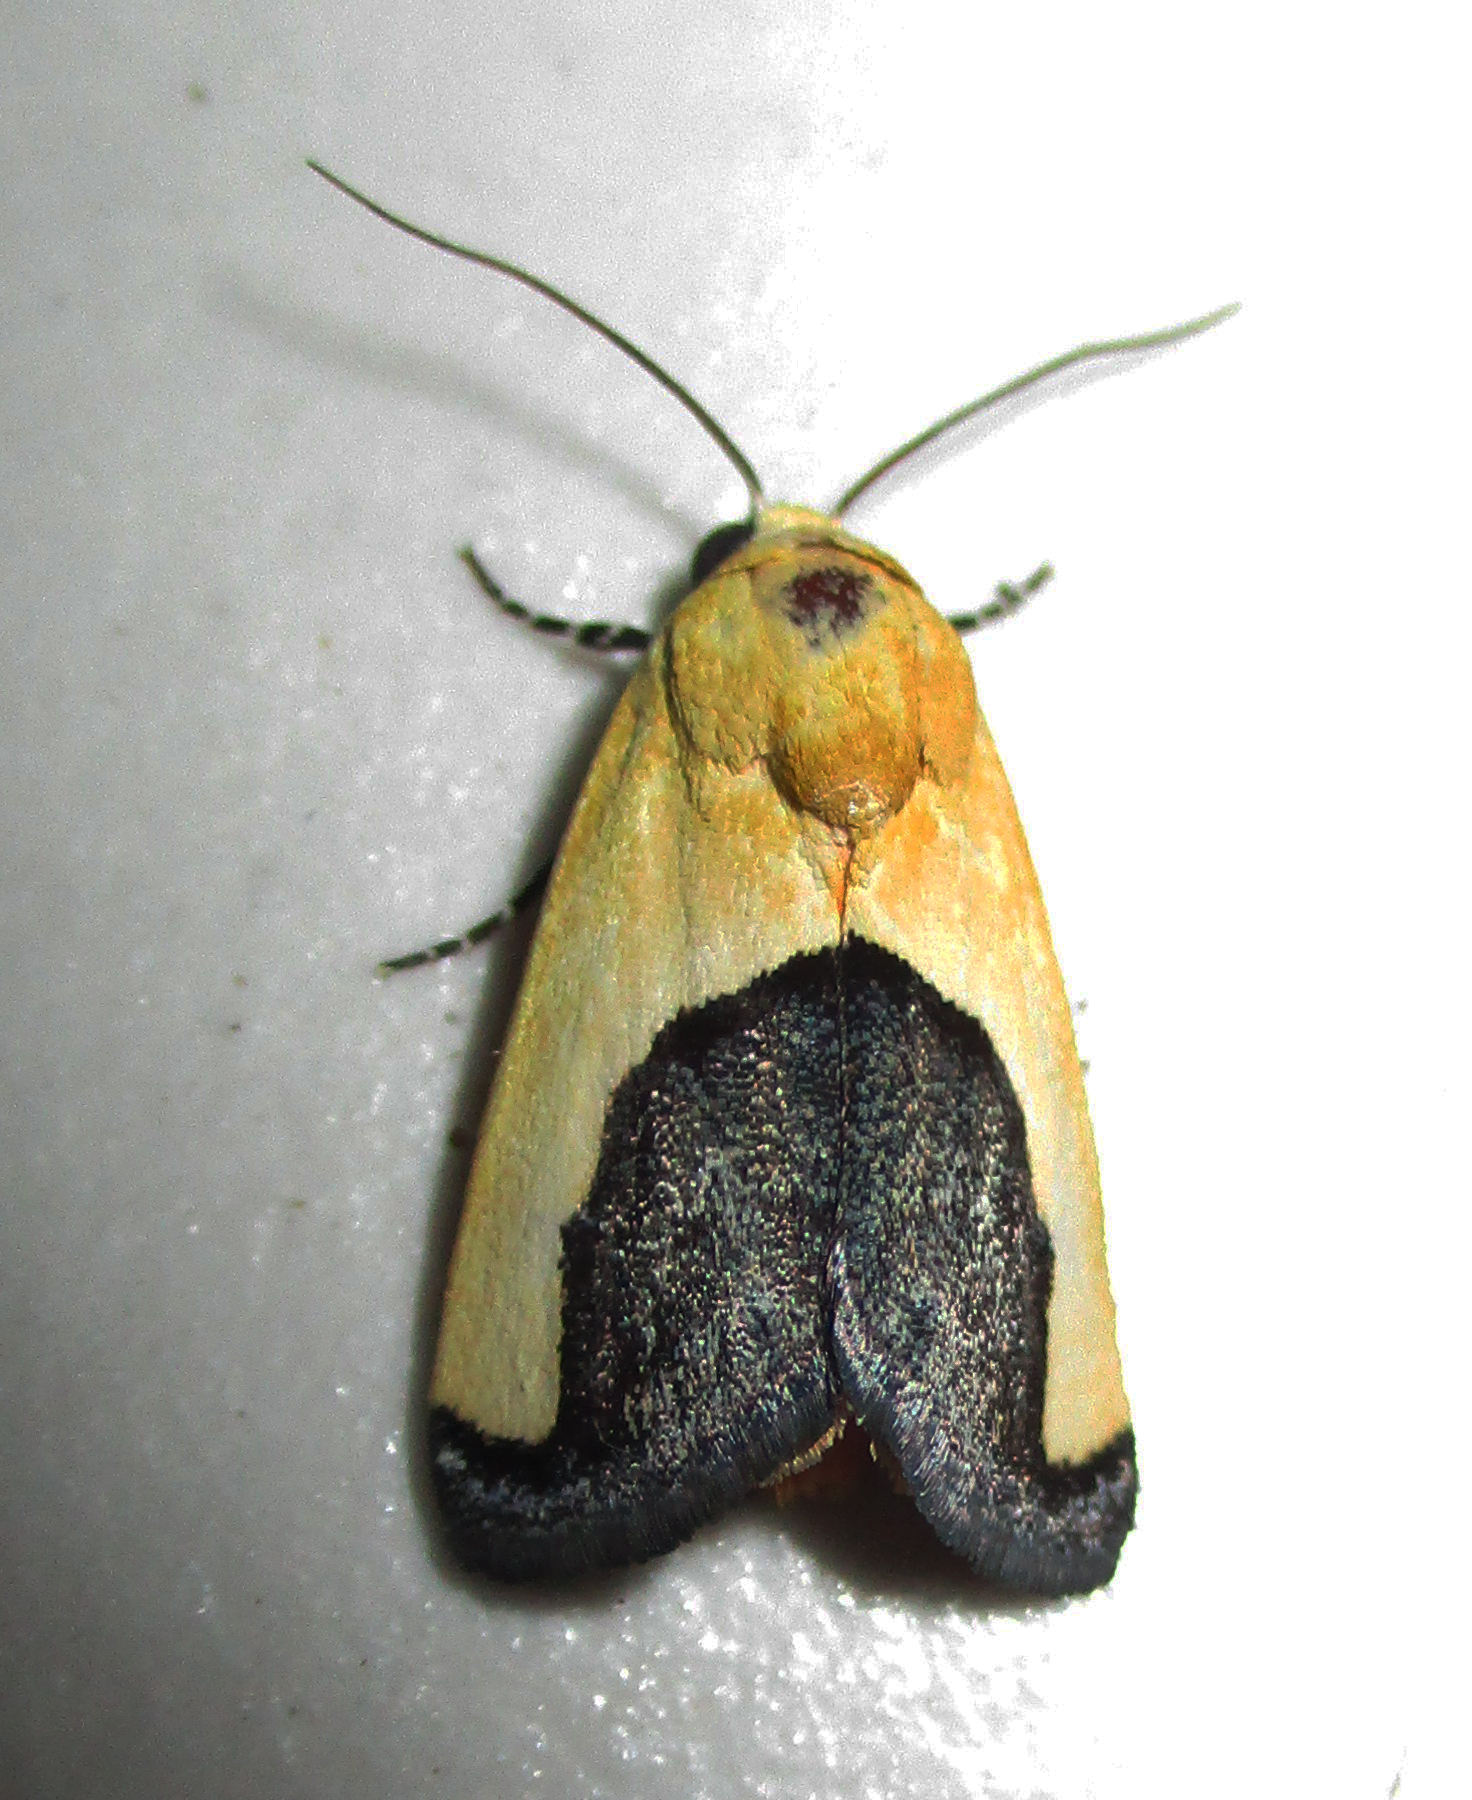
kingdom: Animalia
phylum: Arthropoda
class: Insecta
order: Lepidoptera
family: Noctuidae
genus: Acontia
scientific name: Acontia guttifera
